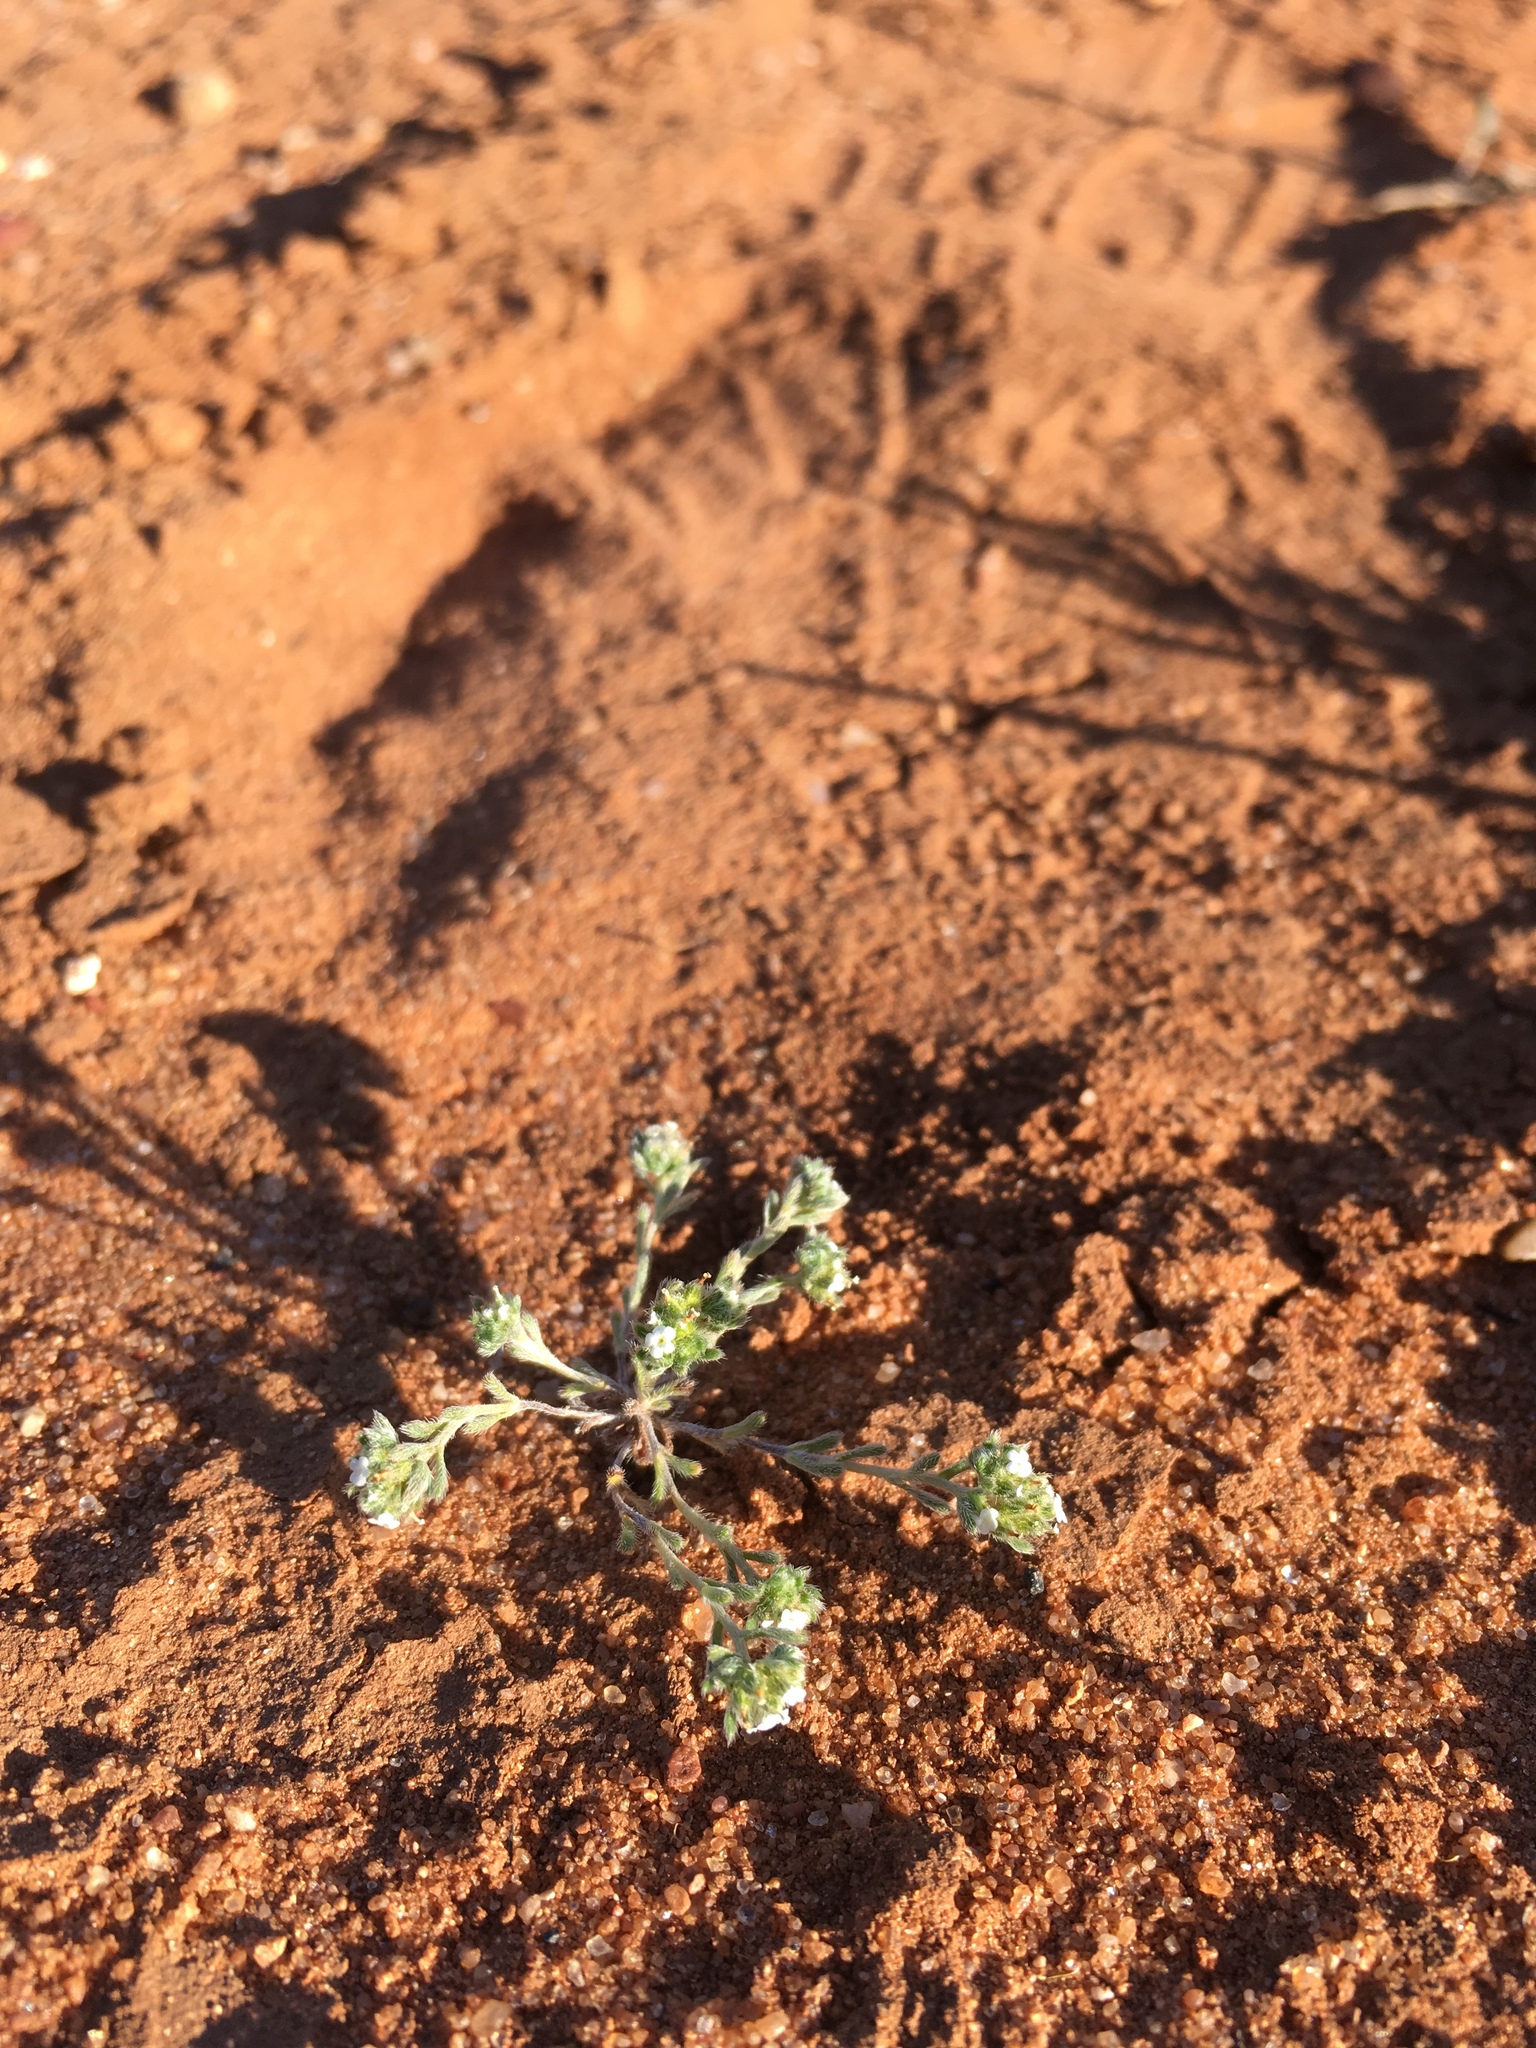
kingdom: Plantae
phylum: Tracheophyta
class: Magnoliopsida
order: Boraginales
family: Boraginaceae
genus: Eremocarya
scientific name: Eremocarya micrantha
